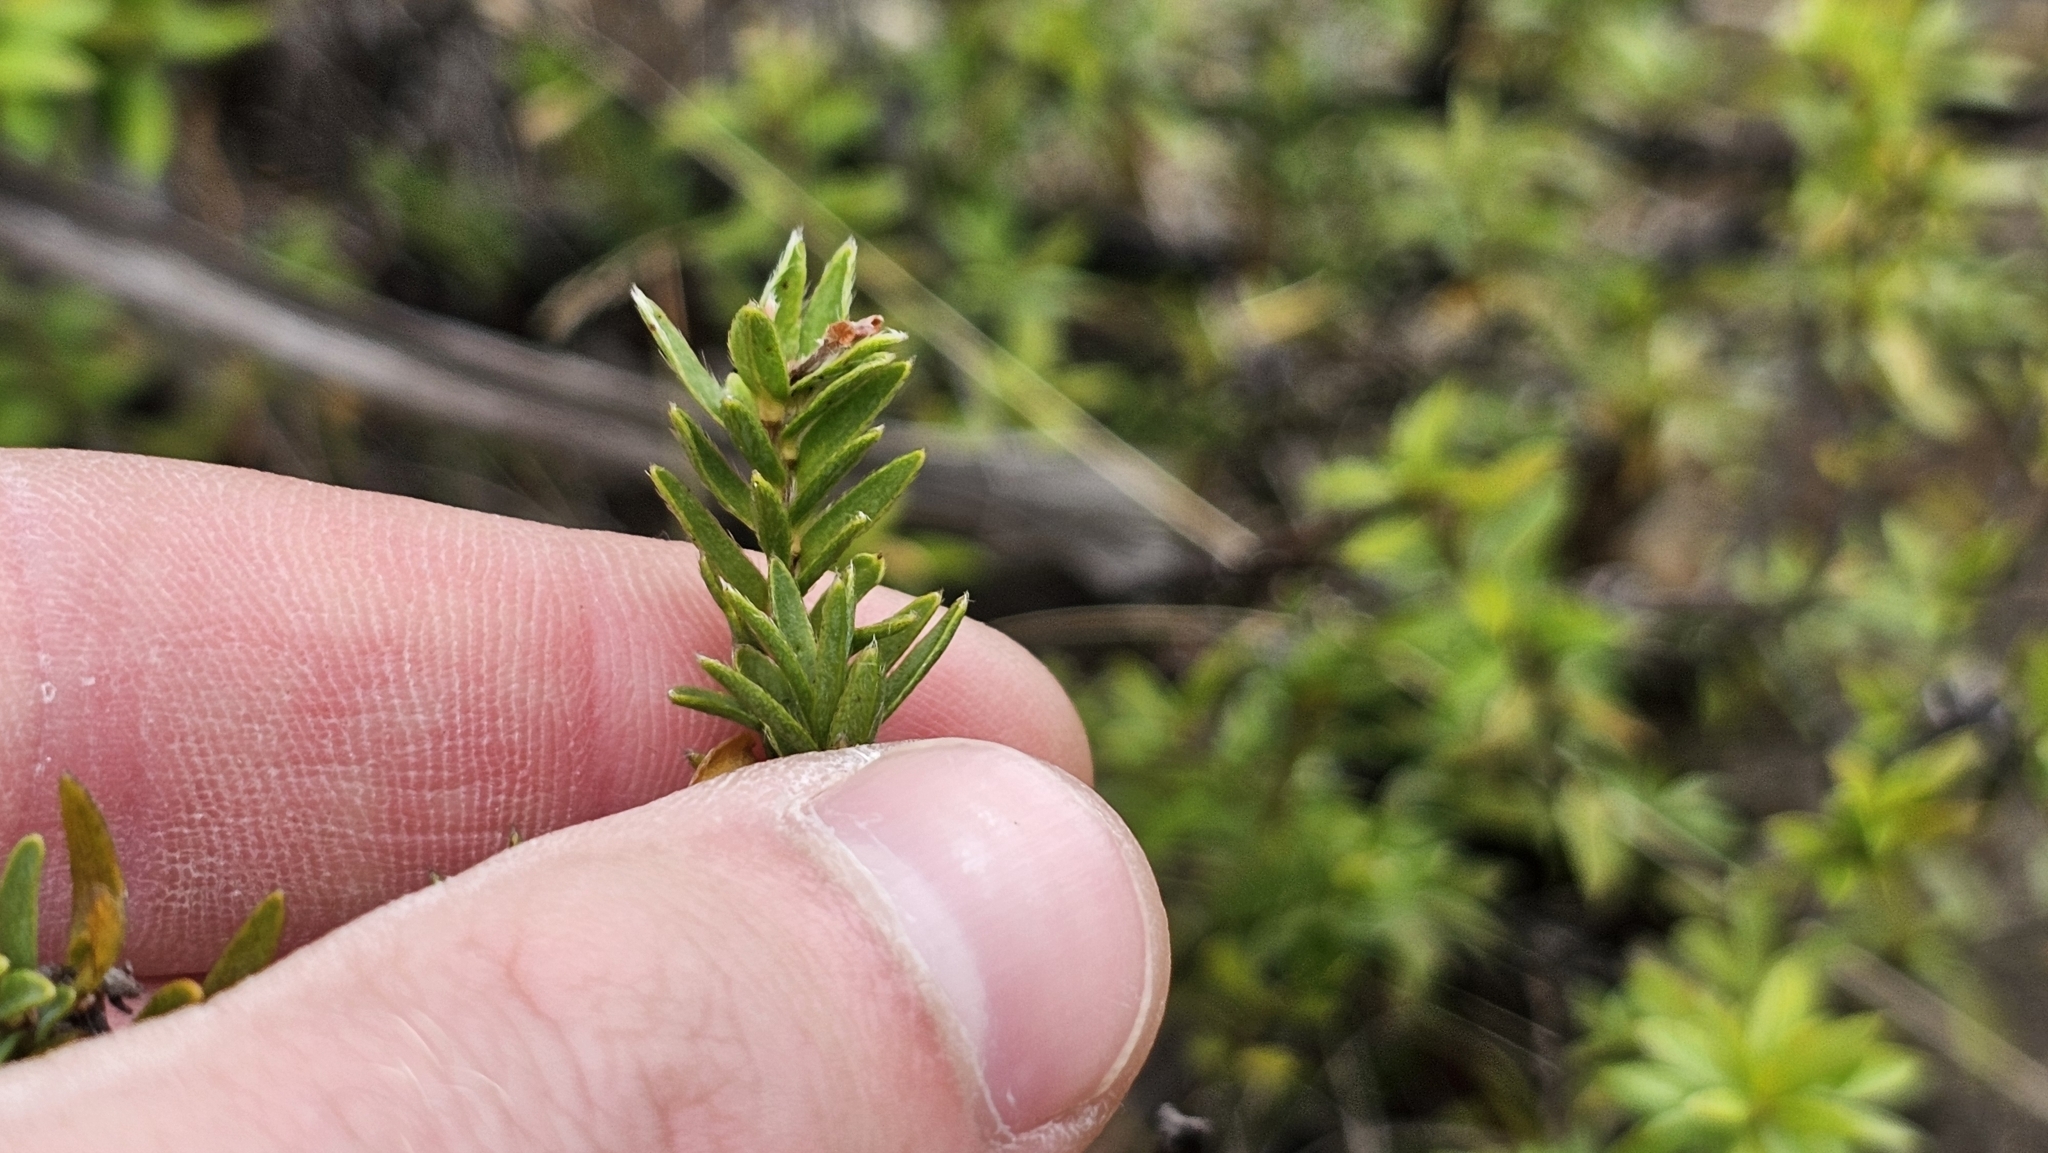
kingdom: Plantae
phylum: Tracheophyta
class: Magnoliopsida
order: Malvales
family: Thymelaeaceae
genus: Pimelea
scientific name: Pimelea suteri
